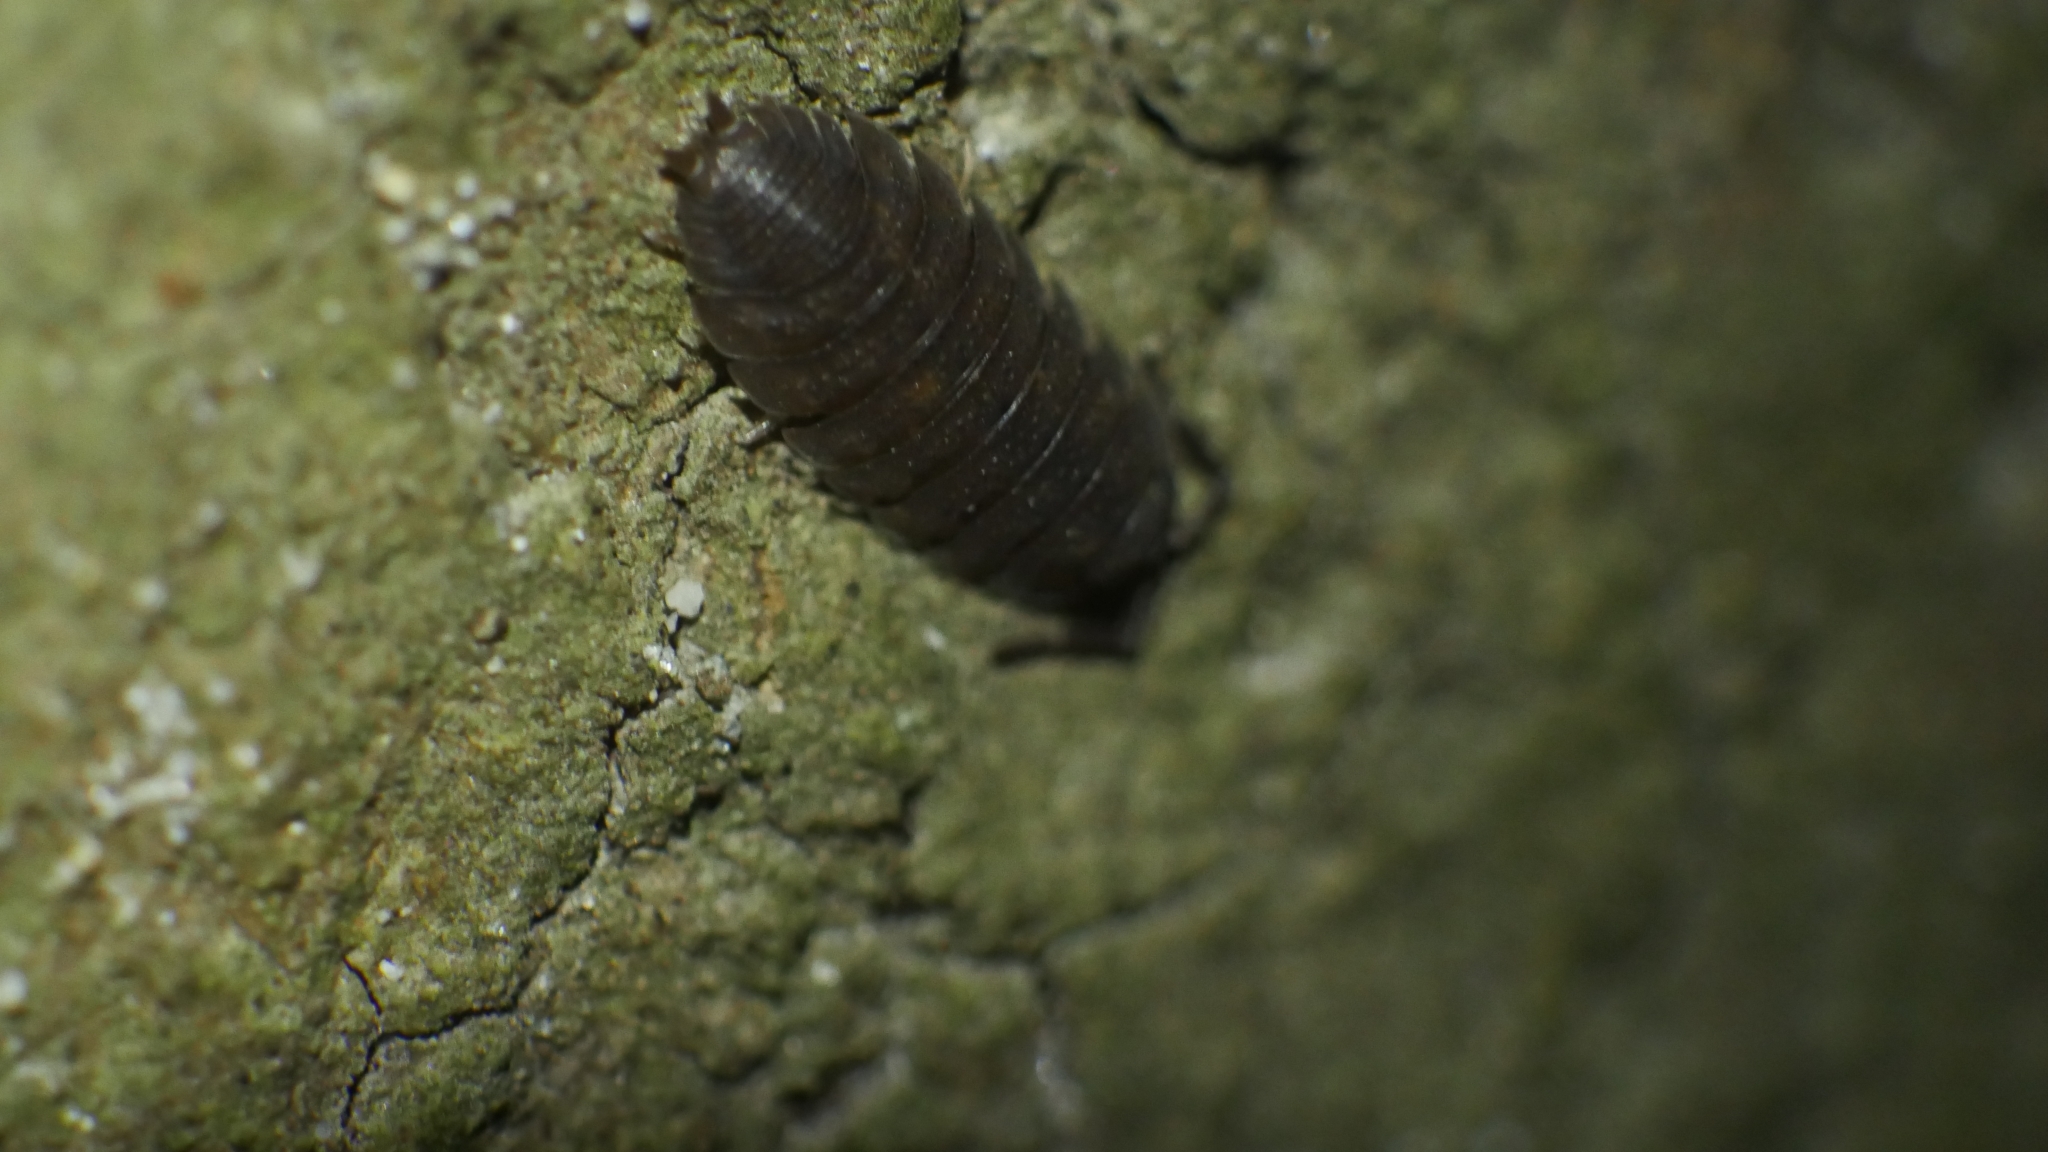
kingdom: Animalia
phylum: Arthropoda
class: Malacostraca
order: Isopoda
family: Porcellionidae
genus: Porcellio
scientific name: Porcellio scaber
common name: Common rough woodlouse
